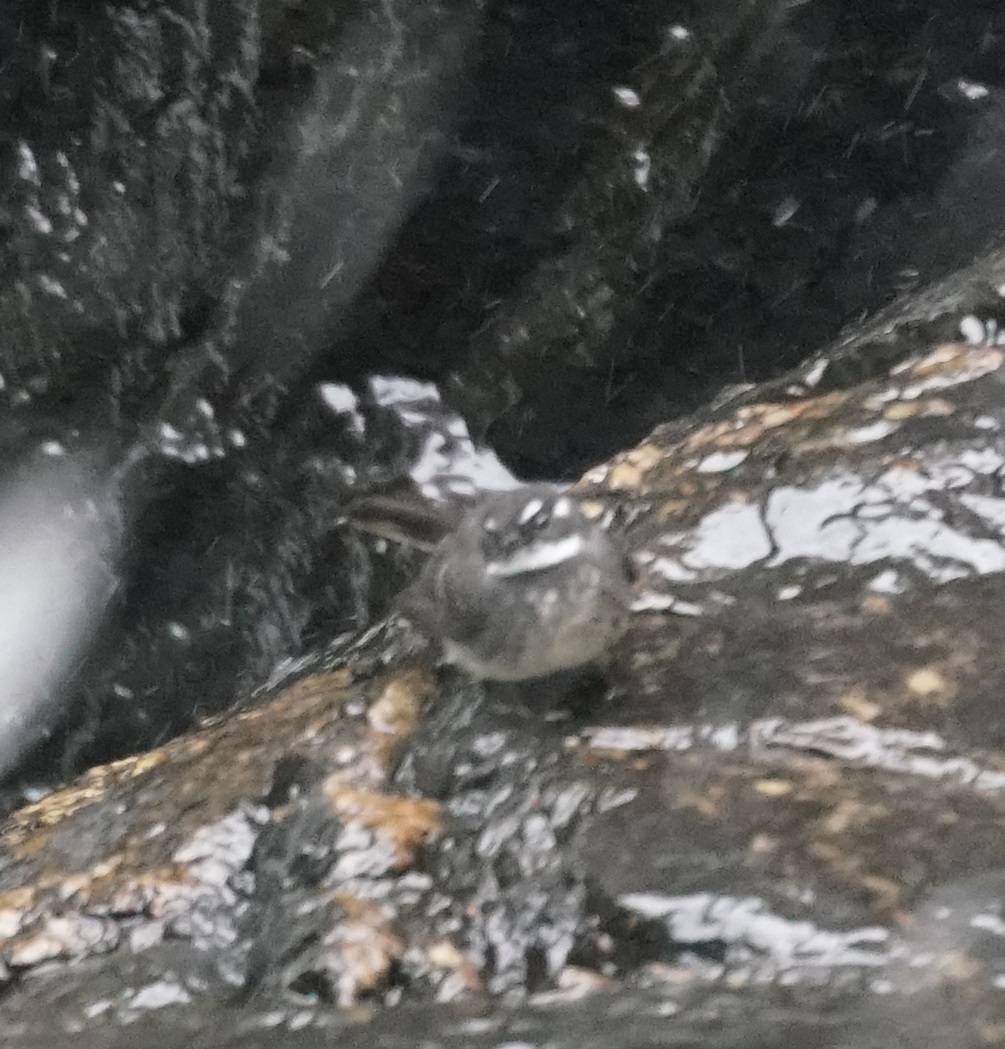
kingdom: Animalia
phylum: Chordata
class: Aves
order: Passeriformes
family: Rhipiduridae
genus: Rhipidura
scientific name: Rhipidura albiscapa
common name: Grey fantail
